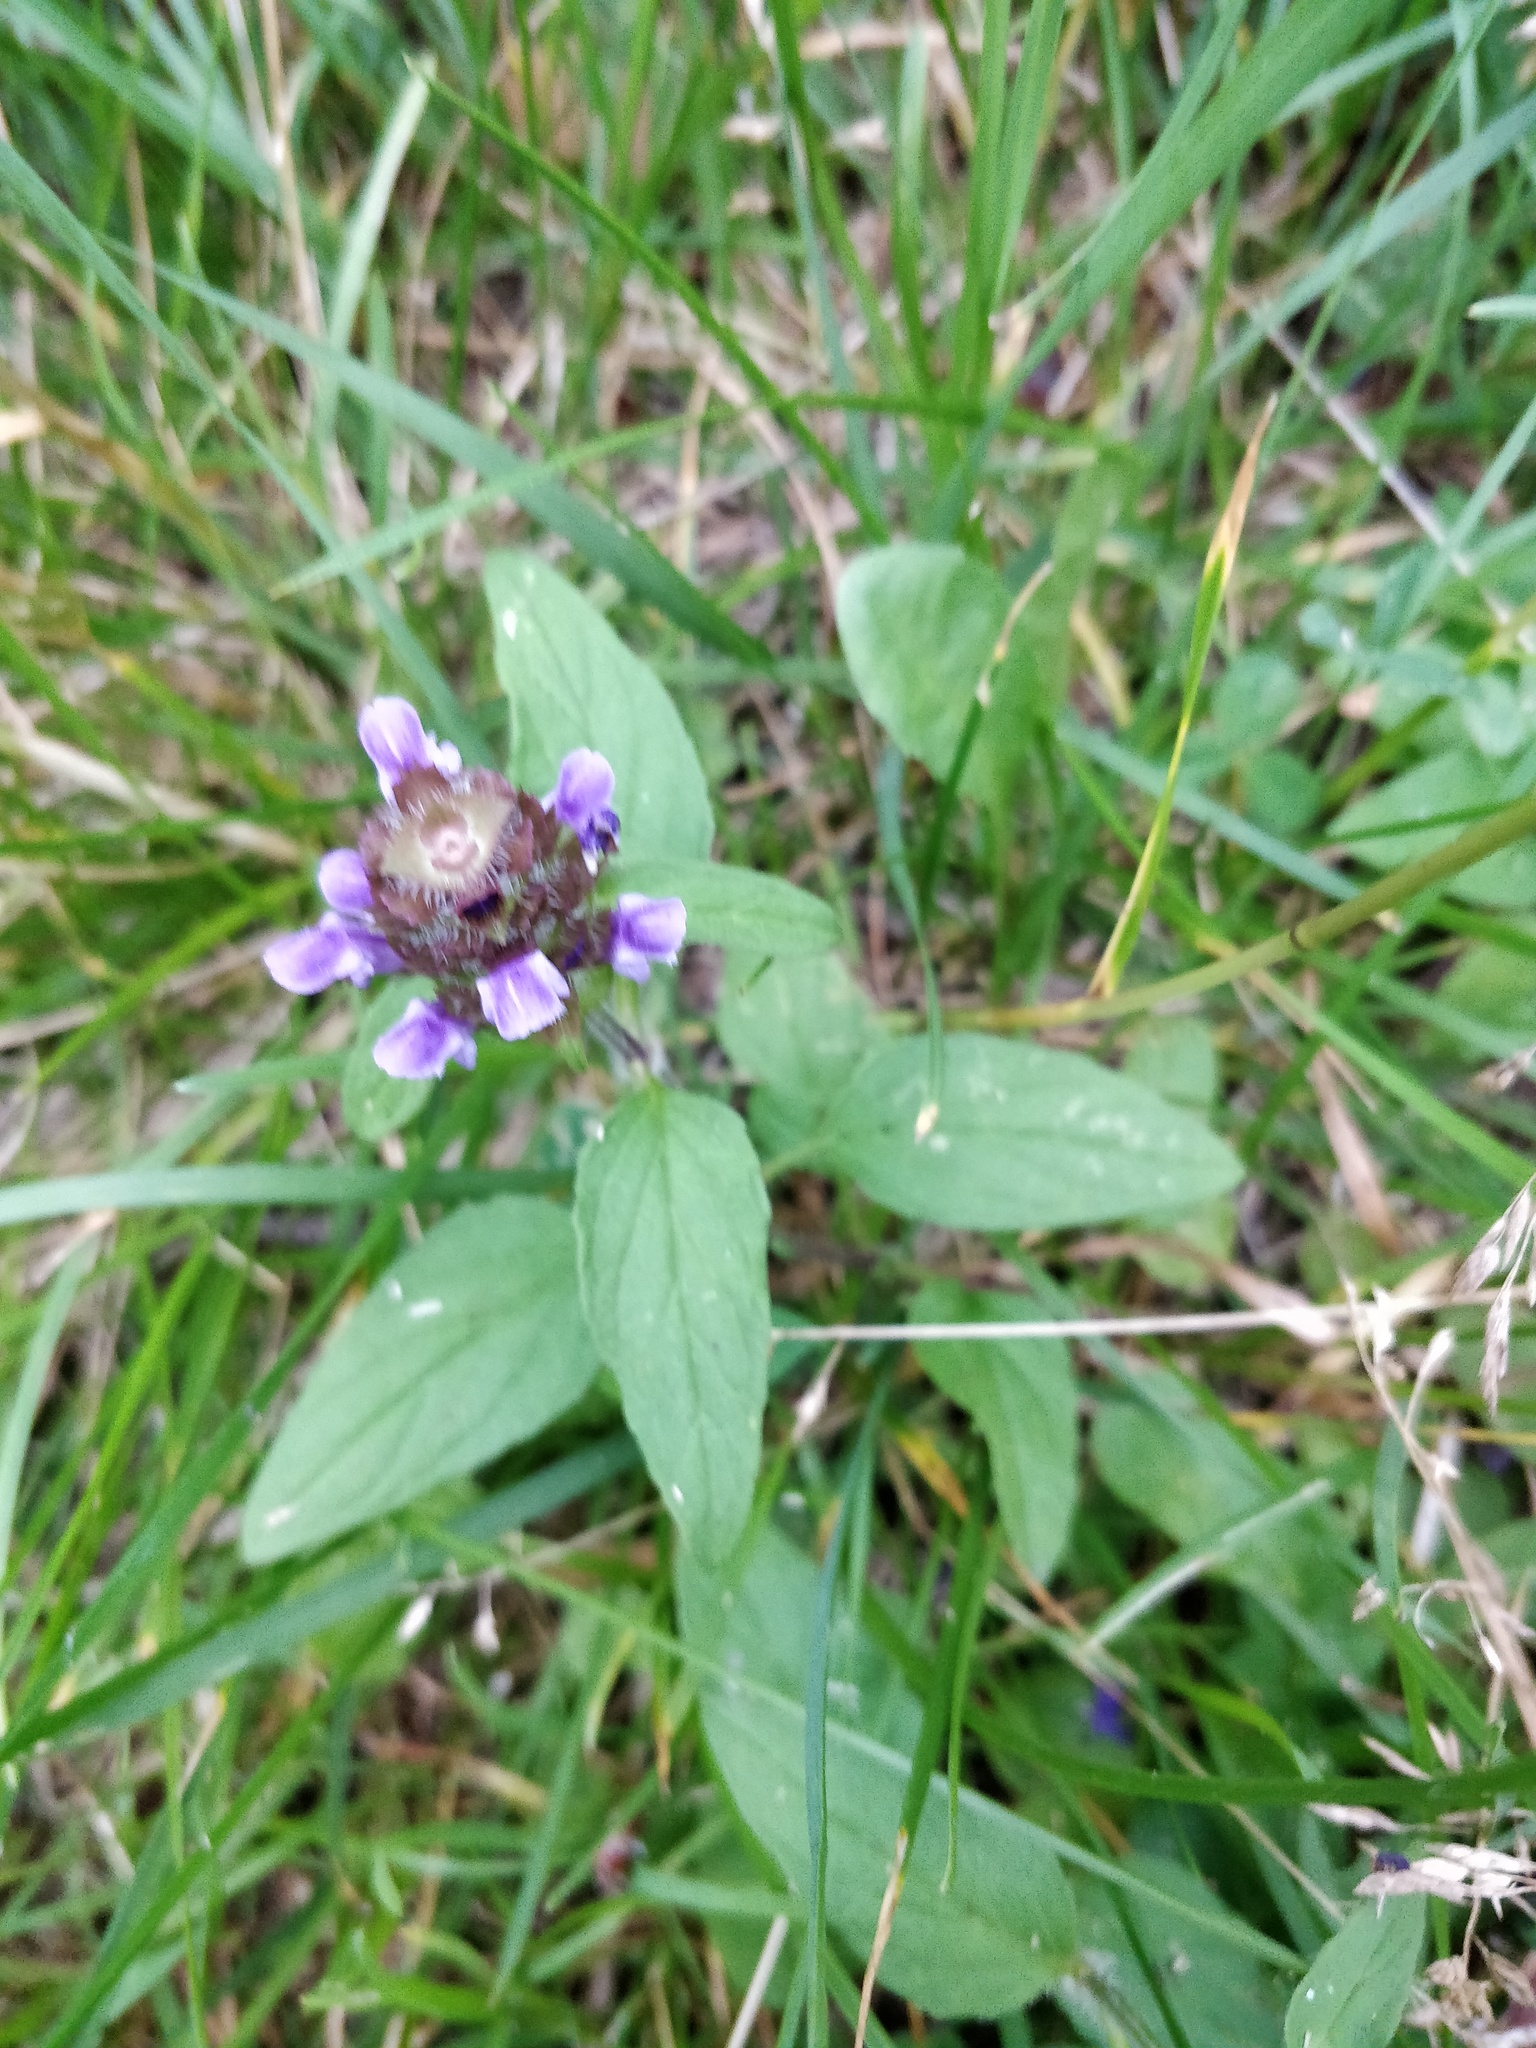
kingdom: Plantae
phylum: Tracheophyta
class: Magnoliopsida
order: Lamiales
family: Lamiaceae
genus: Prunella
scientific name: Prunella vulgaris
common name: Heal-all
